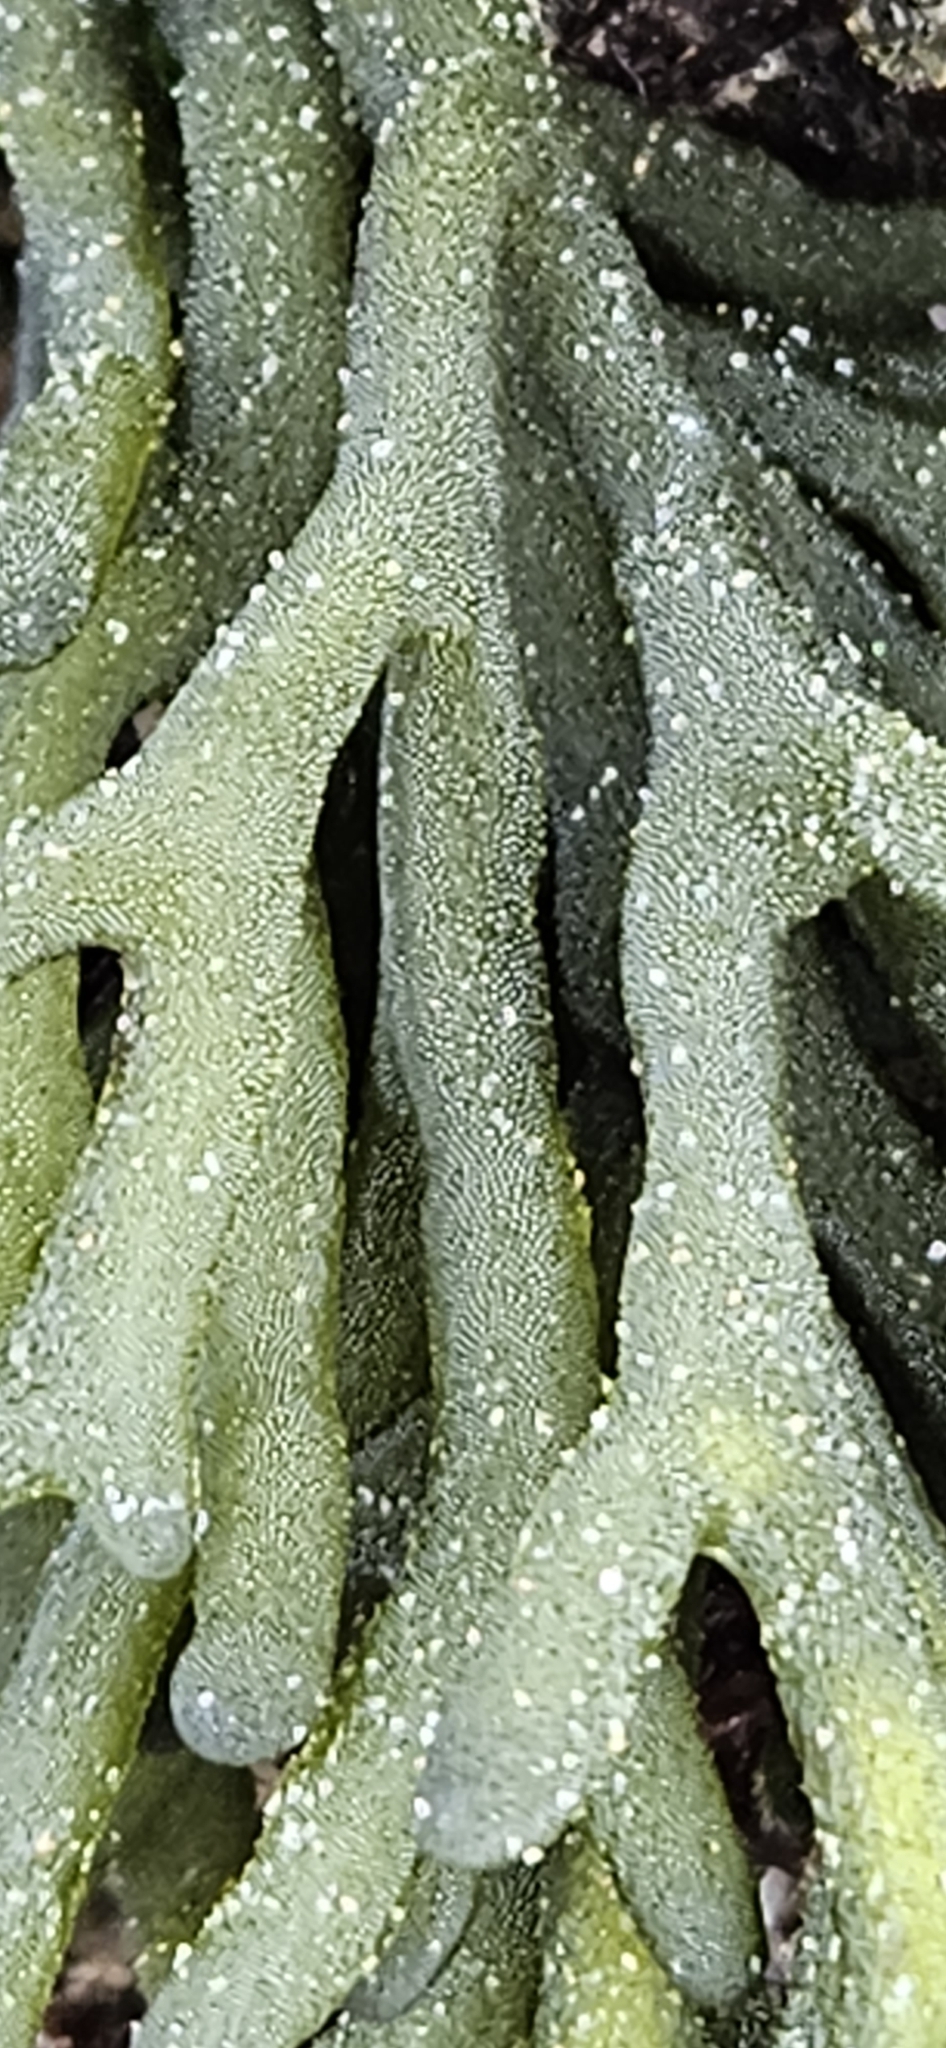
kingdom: Plantae
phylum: Chlorophyta
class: Ulvophyceae
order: Bryopsidales
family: Codiaceae
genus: Codium
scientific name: Codium fragile
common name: Dead man's fingers
